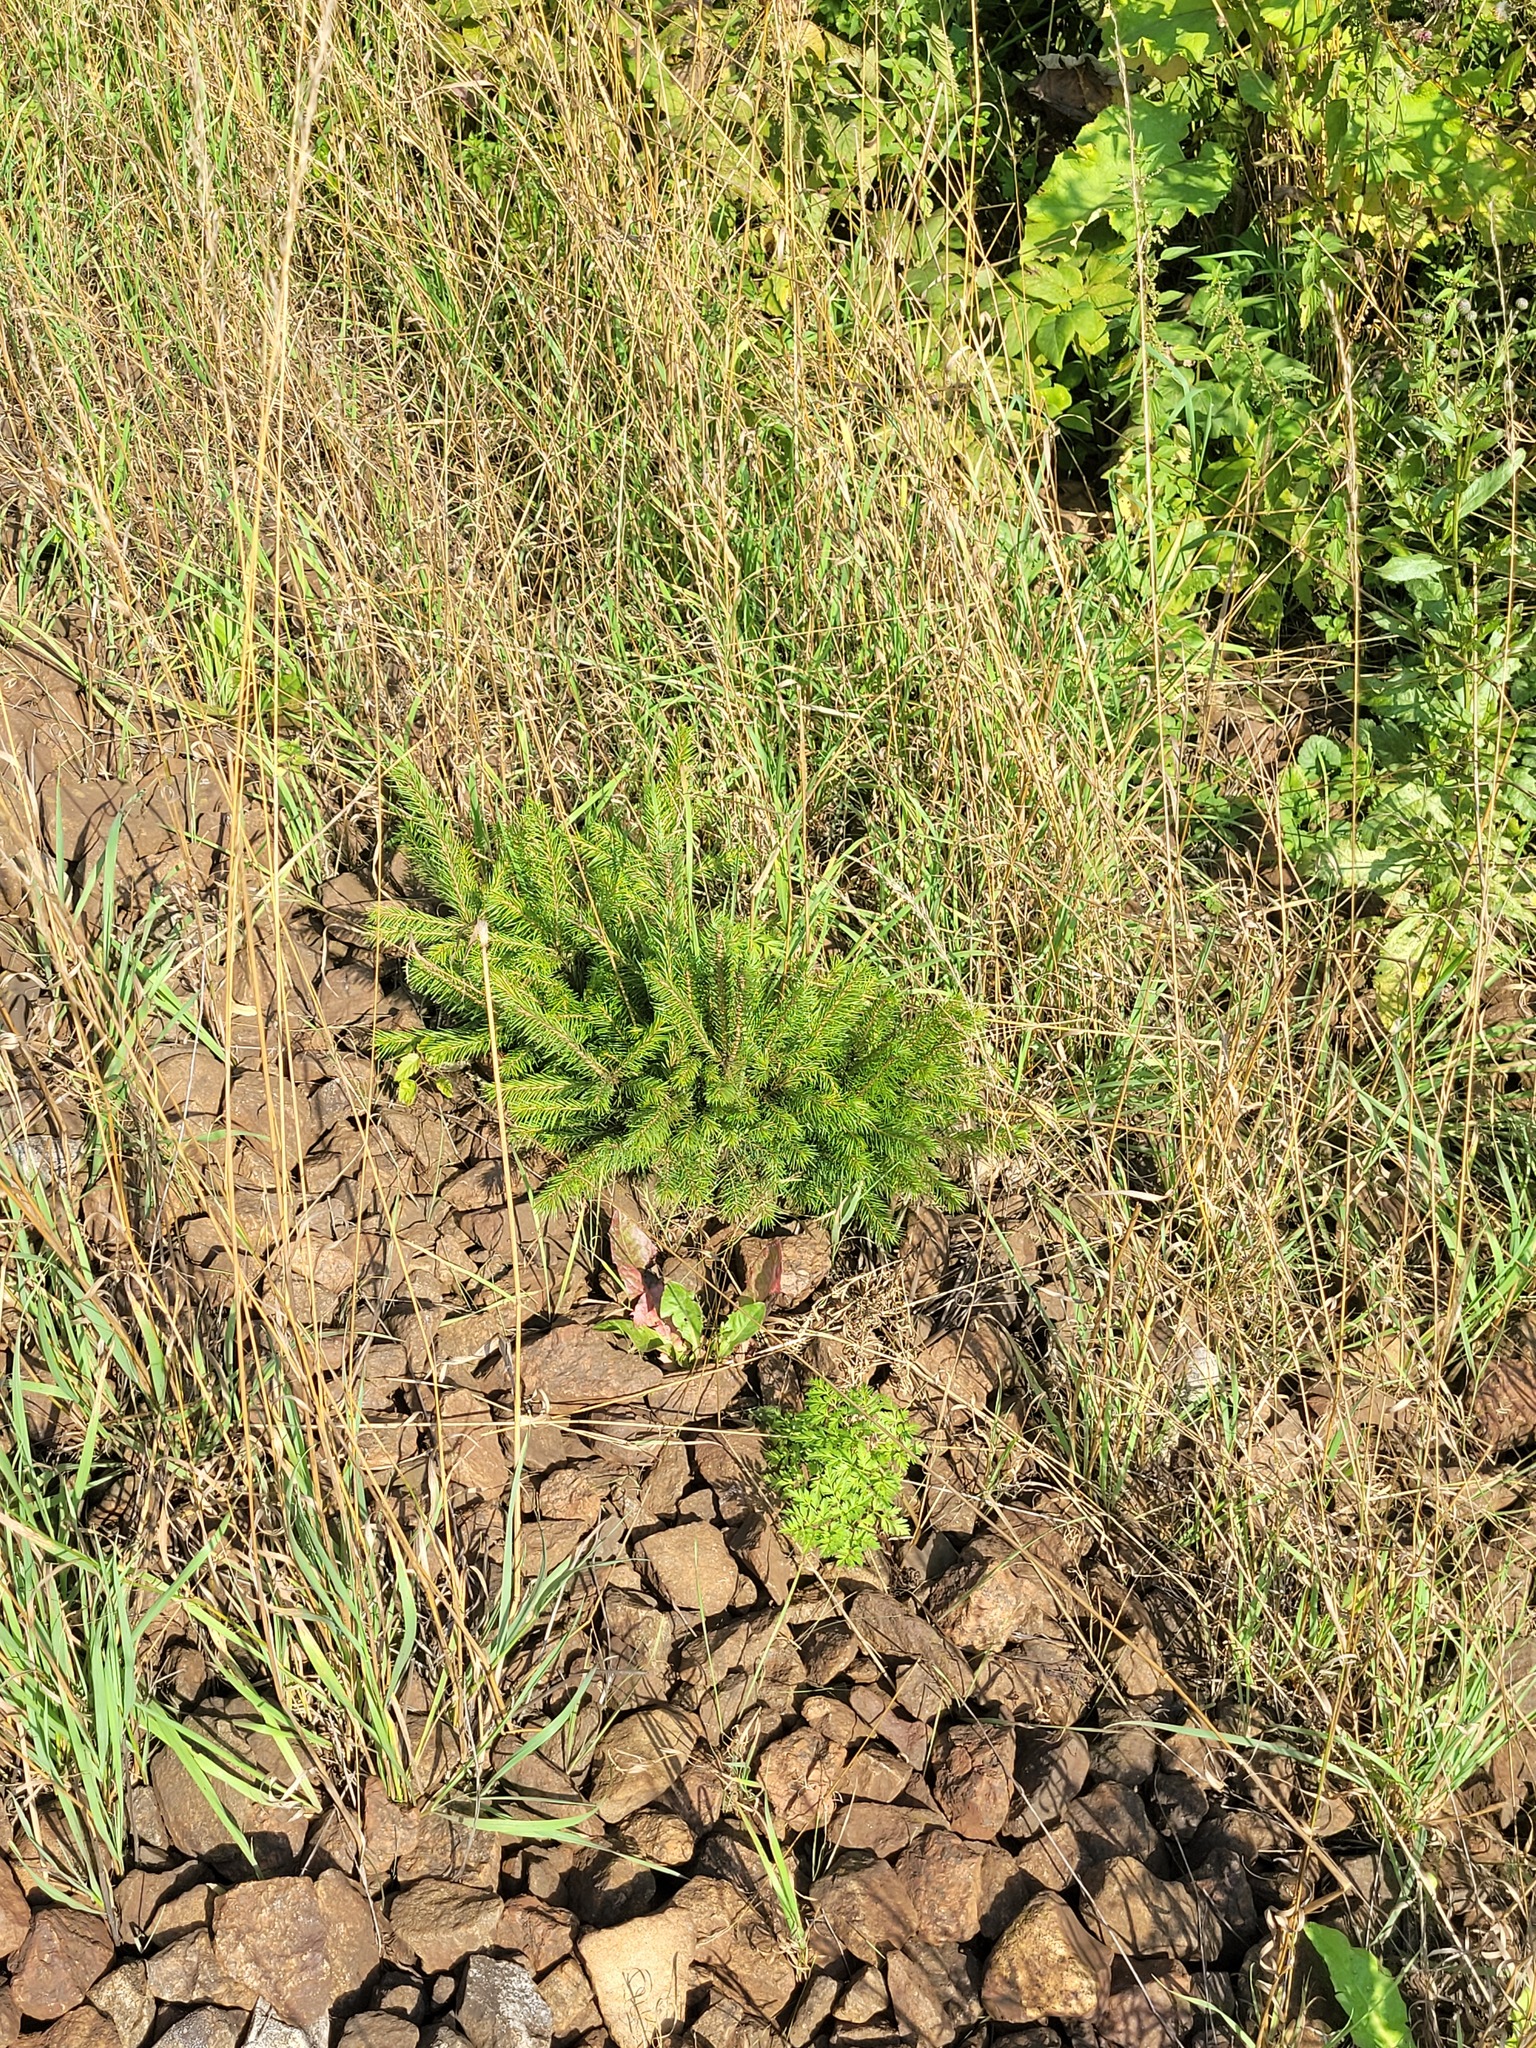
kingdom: Plantae
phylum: Tracheophyta
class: Pinopsida
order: Pinales
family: Pinaceae
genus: Picea
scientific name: Picea abies
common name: Norway spruce
